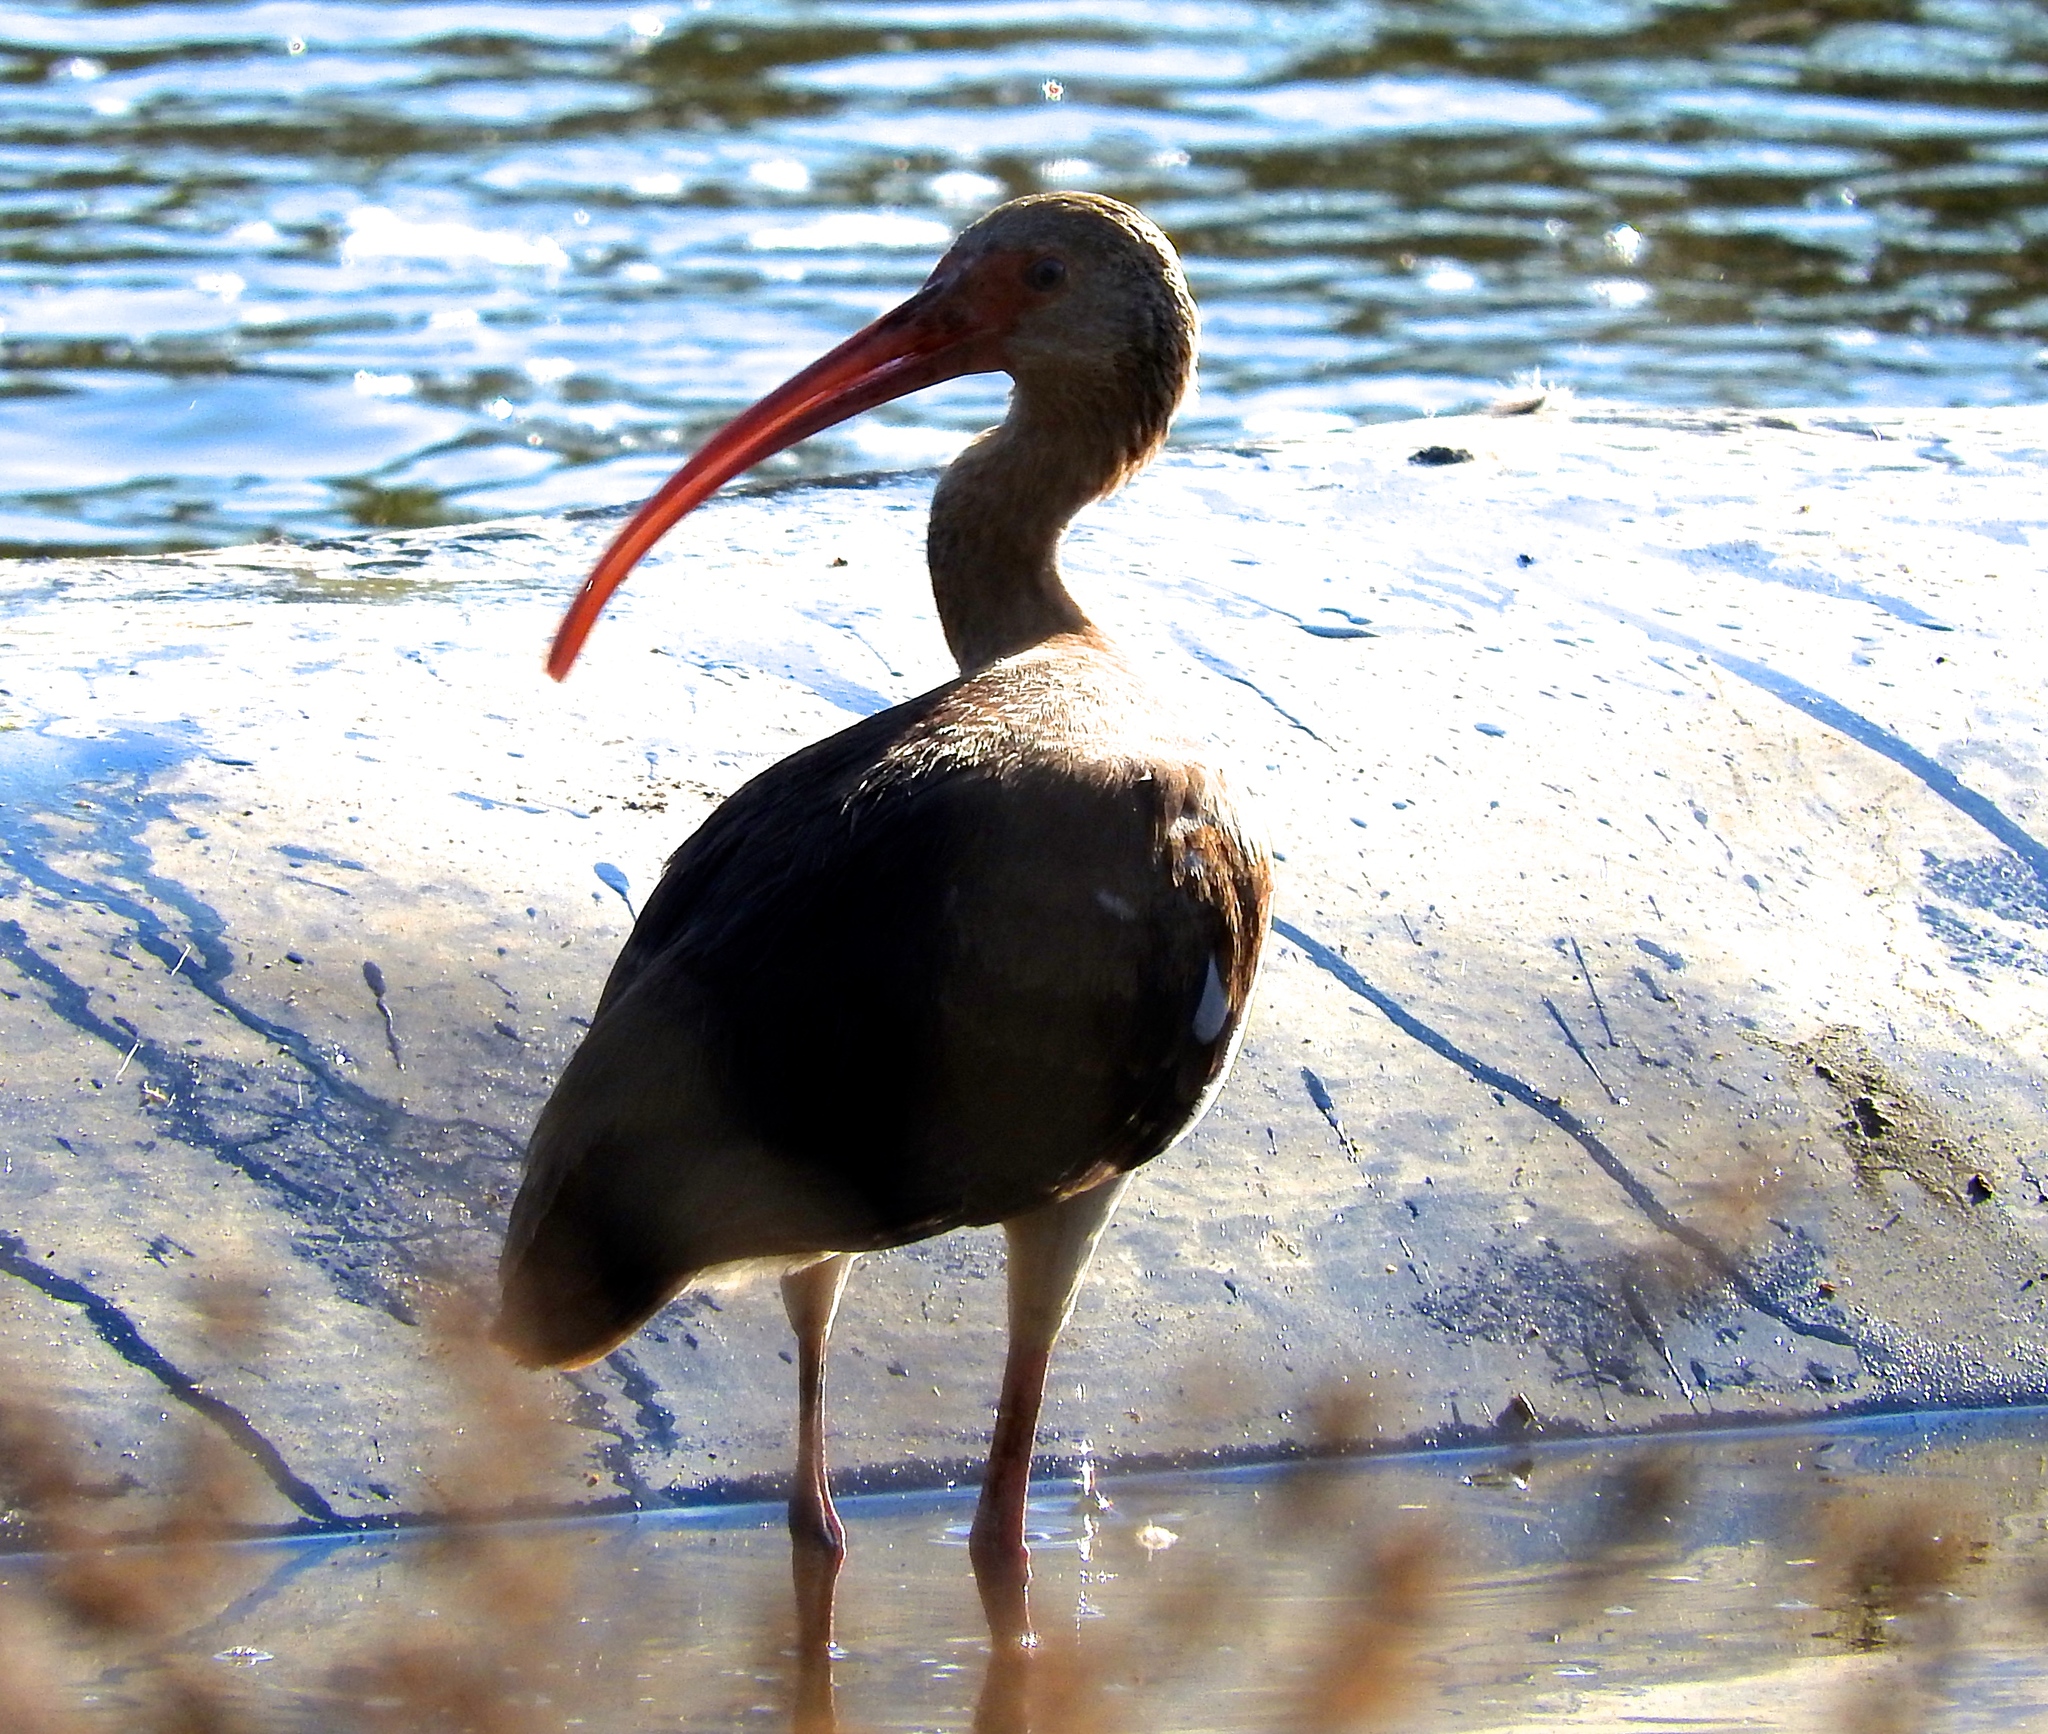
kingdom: Animalia
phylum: Chordata
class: Aves
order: Pelecaniformes
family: Threskiornithidae
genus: Eudocimus
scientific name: Eudocimus albus
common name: White ibis
